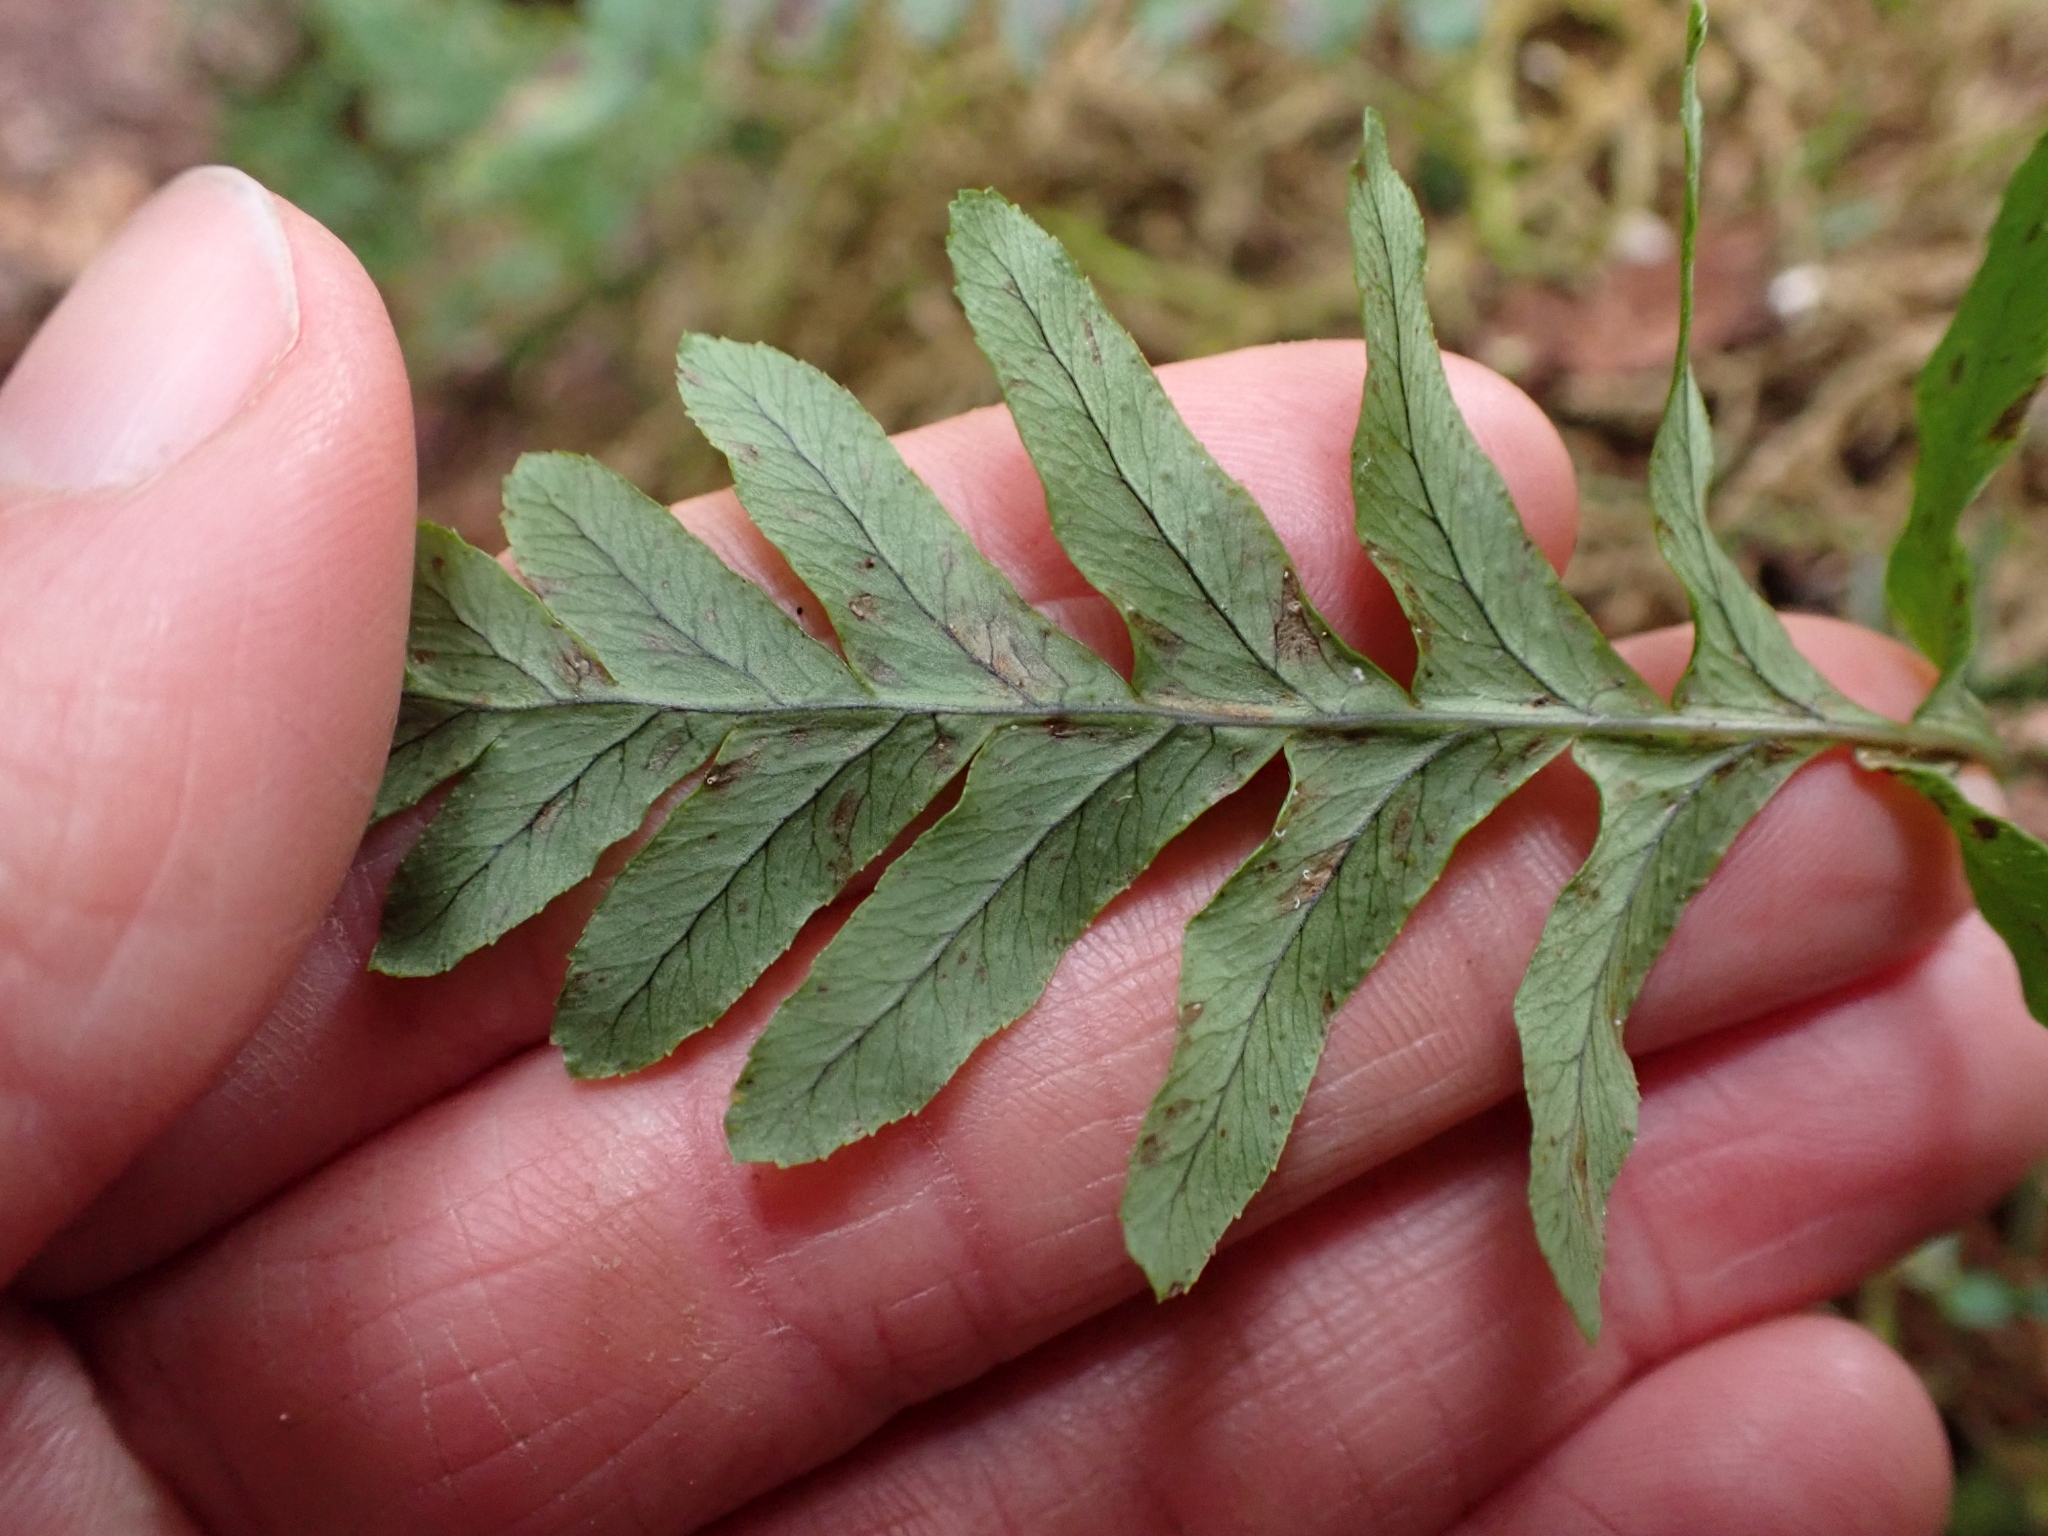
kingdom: Plantae
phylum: Tracheophyta
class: Polypodiopsida
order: Polypodiales
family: Polypodiaceae
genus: Polypodium
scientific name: Polypodium glycyrrhiza
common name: Licorice fern
